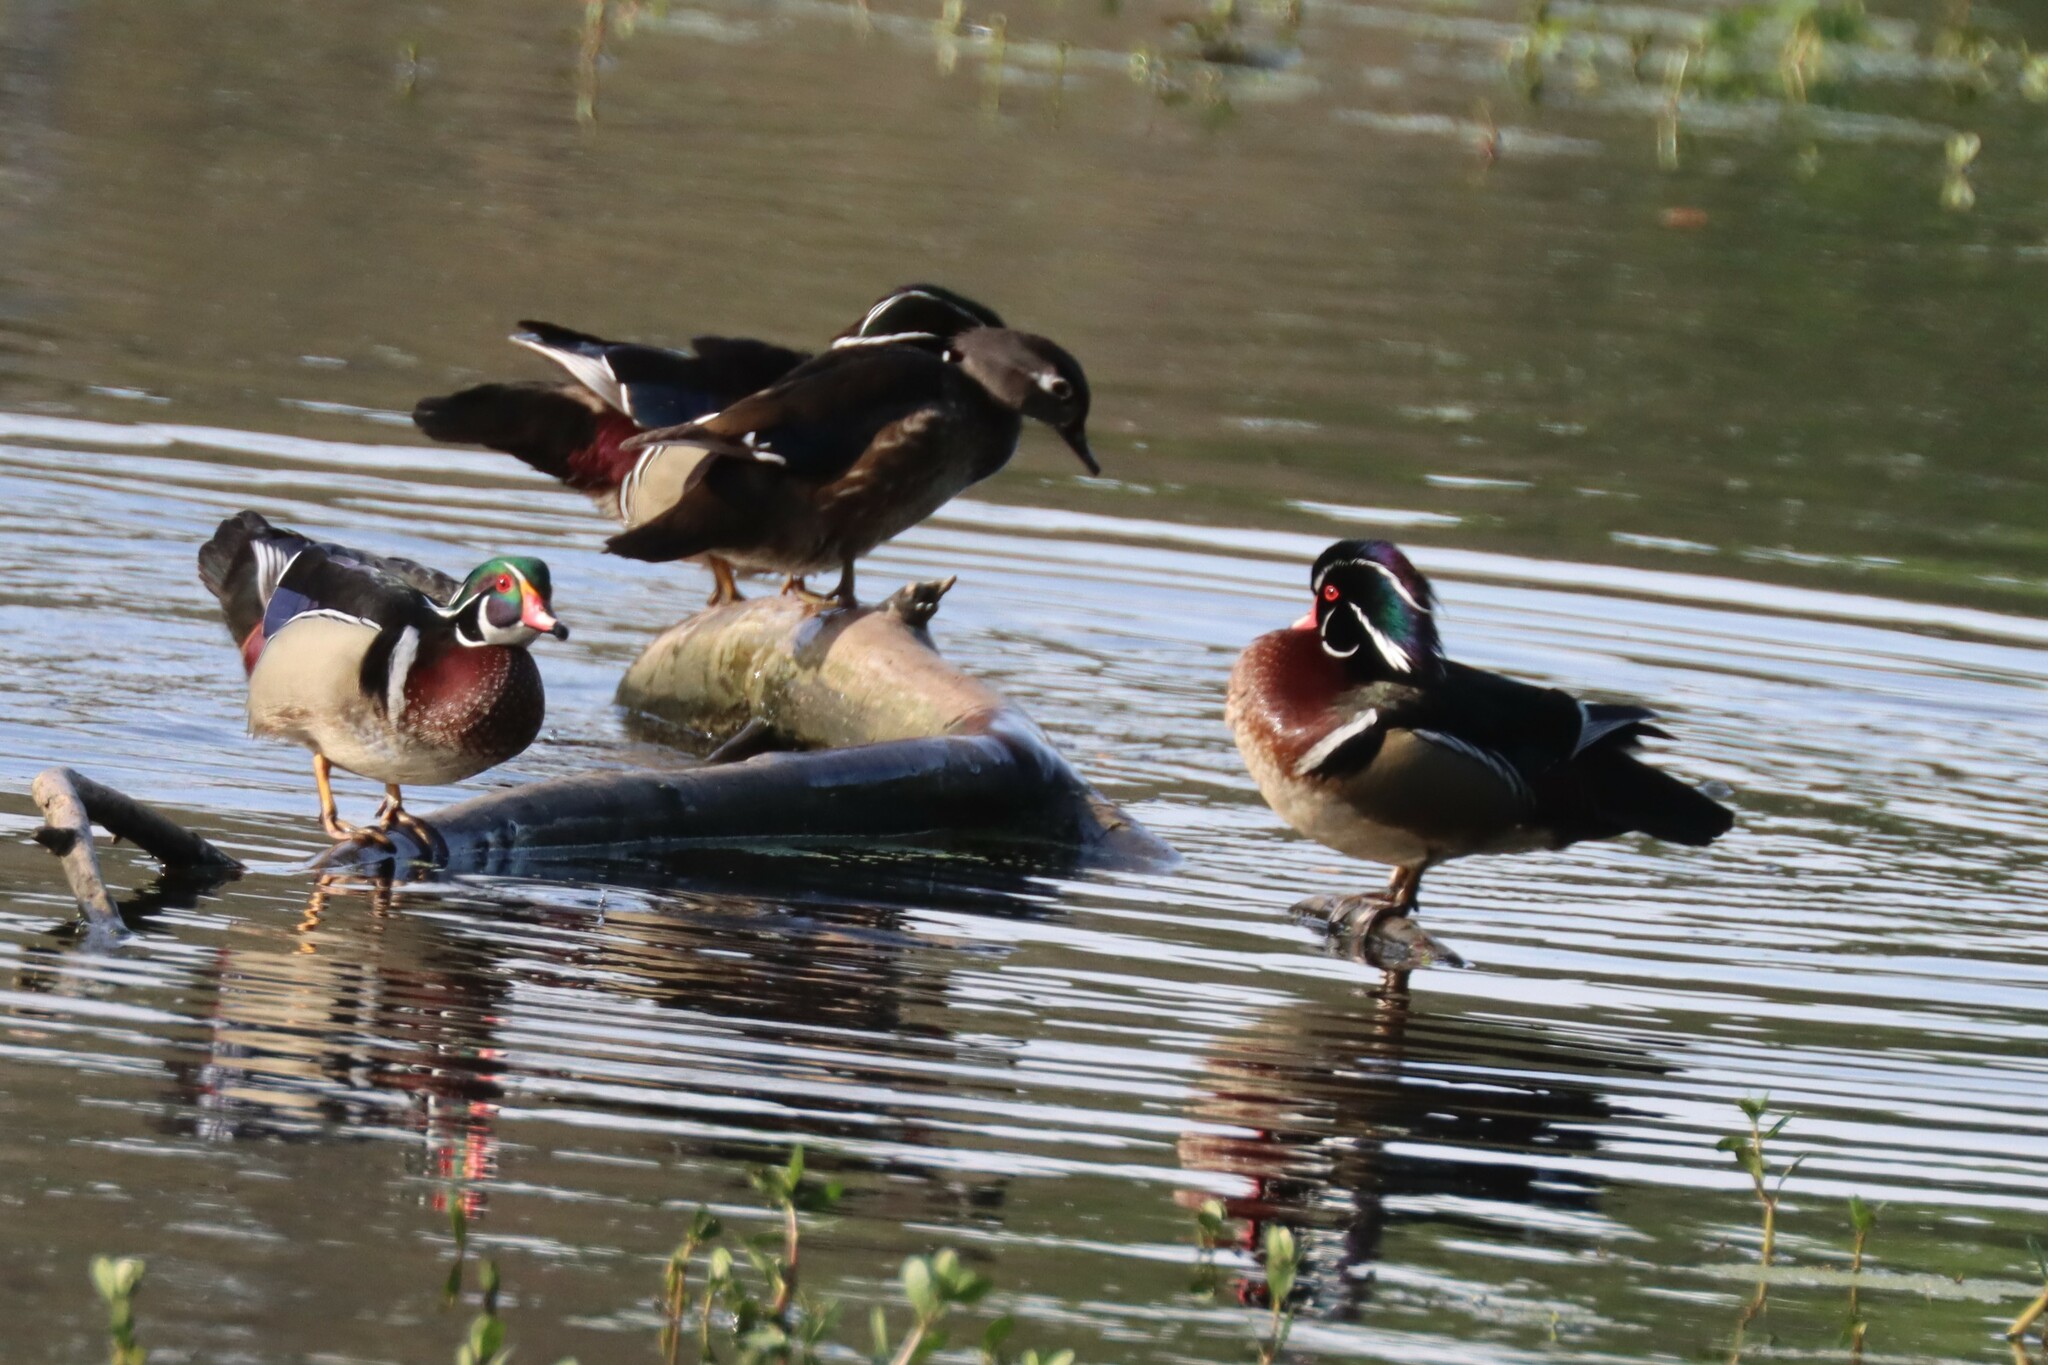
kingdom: Animalia
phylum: Chordata
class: Aves
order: Anseriformes
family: Anatidae
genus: Aix
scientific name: Aix sponsa
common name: Wood duck
